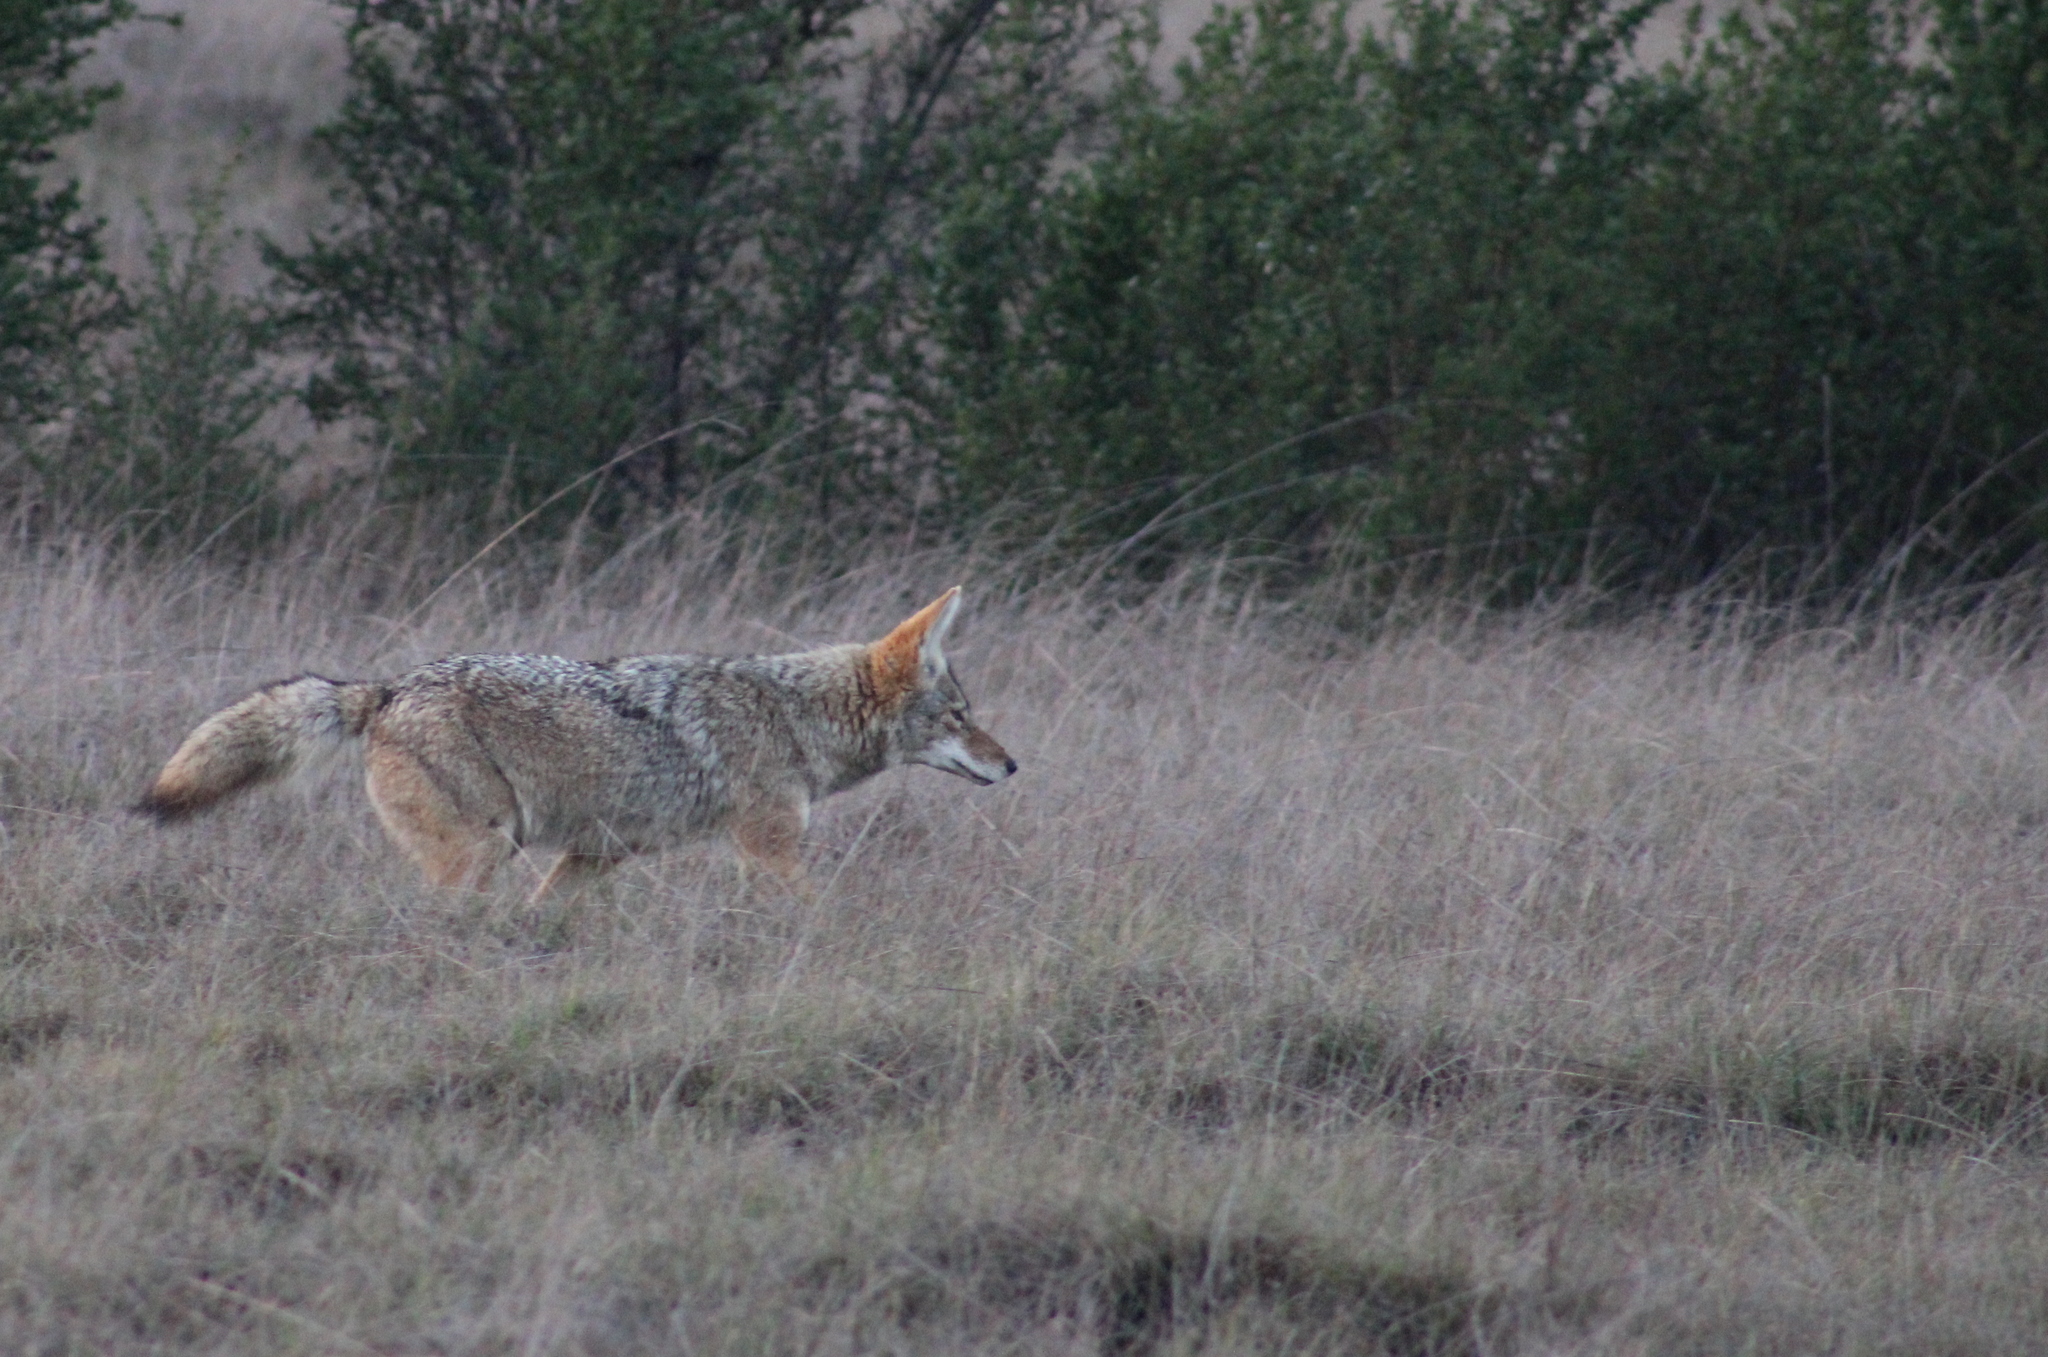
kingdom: Animalia
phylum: Chordata
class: Mammalia
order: Carnivora
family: Canidae
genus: Canis
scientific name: Canis latrans
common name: Coyote
